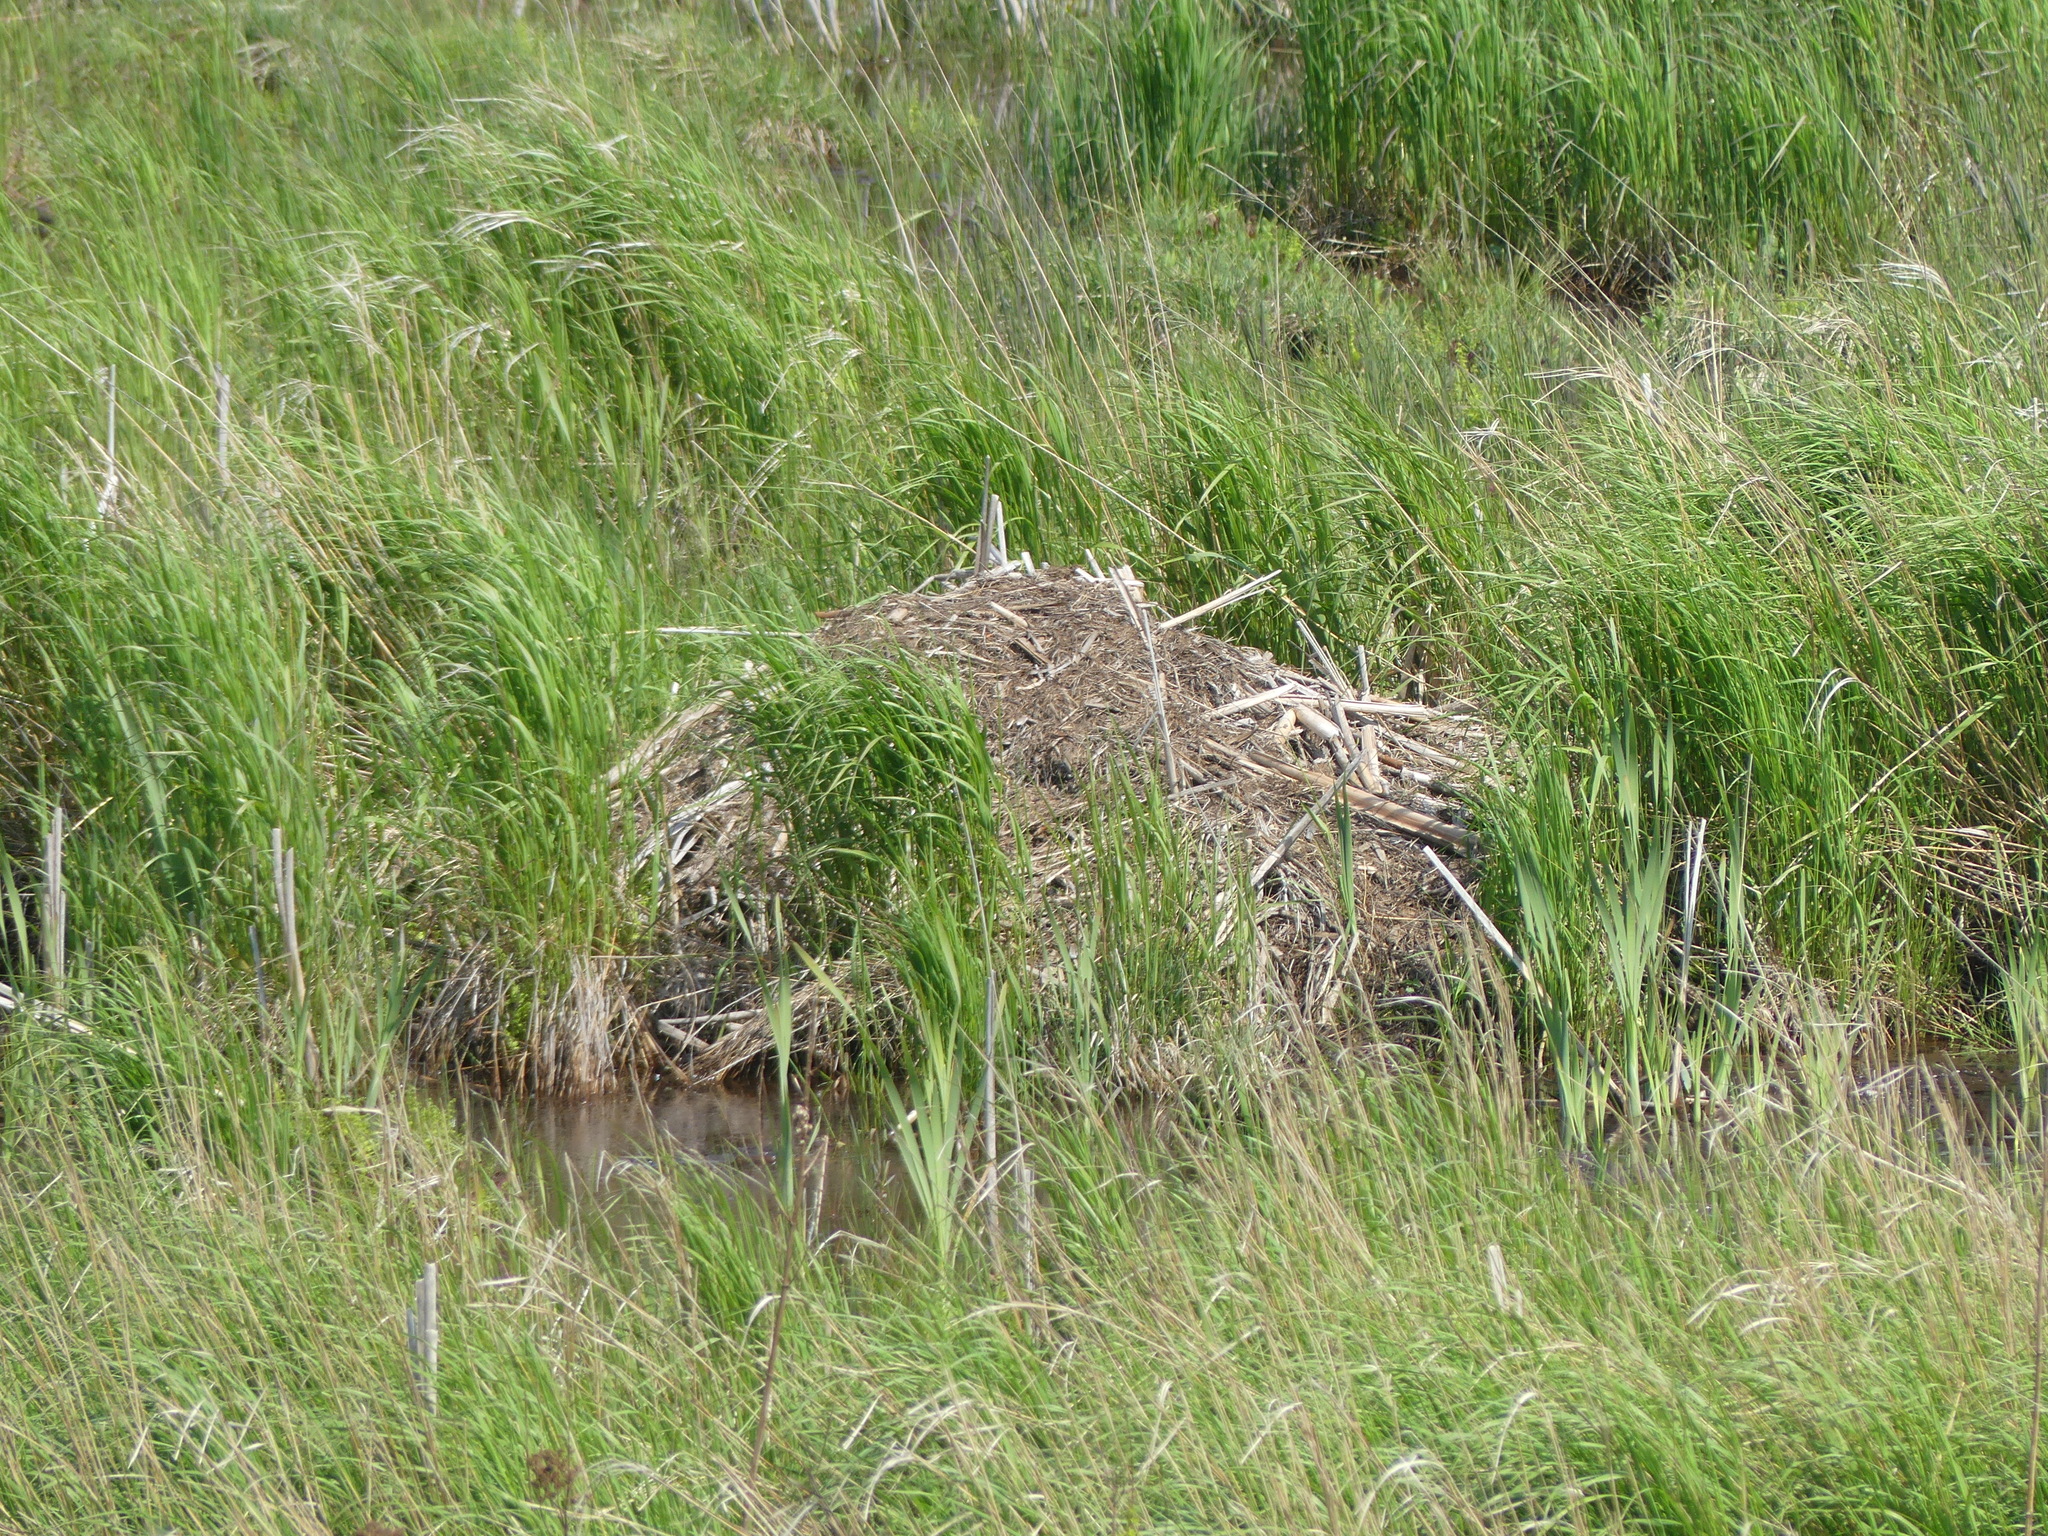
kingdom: Animalia
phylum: Chordata
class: Mammalia
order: Rodentia
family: Cricetidae
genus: Ondatra
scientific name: Ondatra zibethicus
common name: Muskrat
